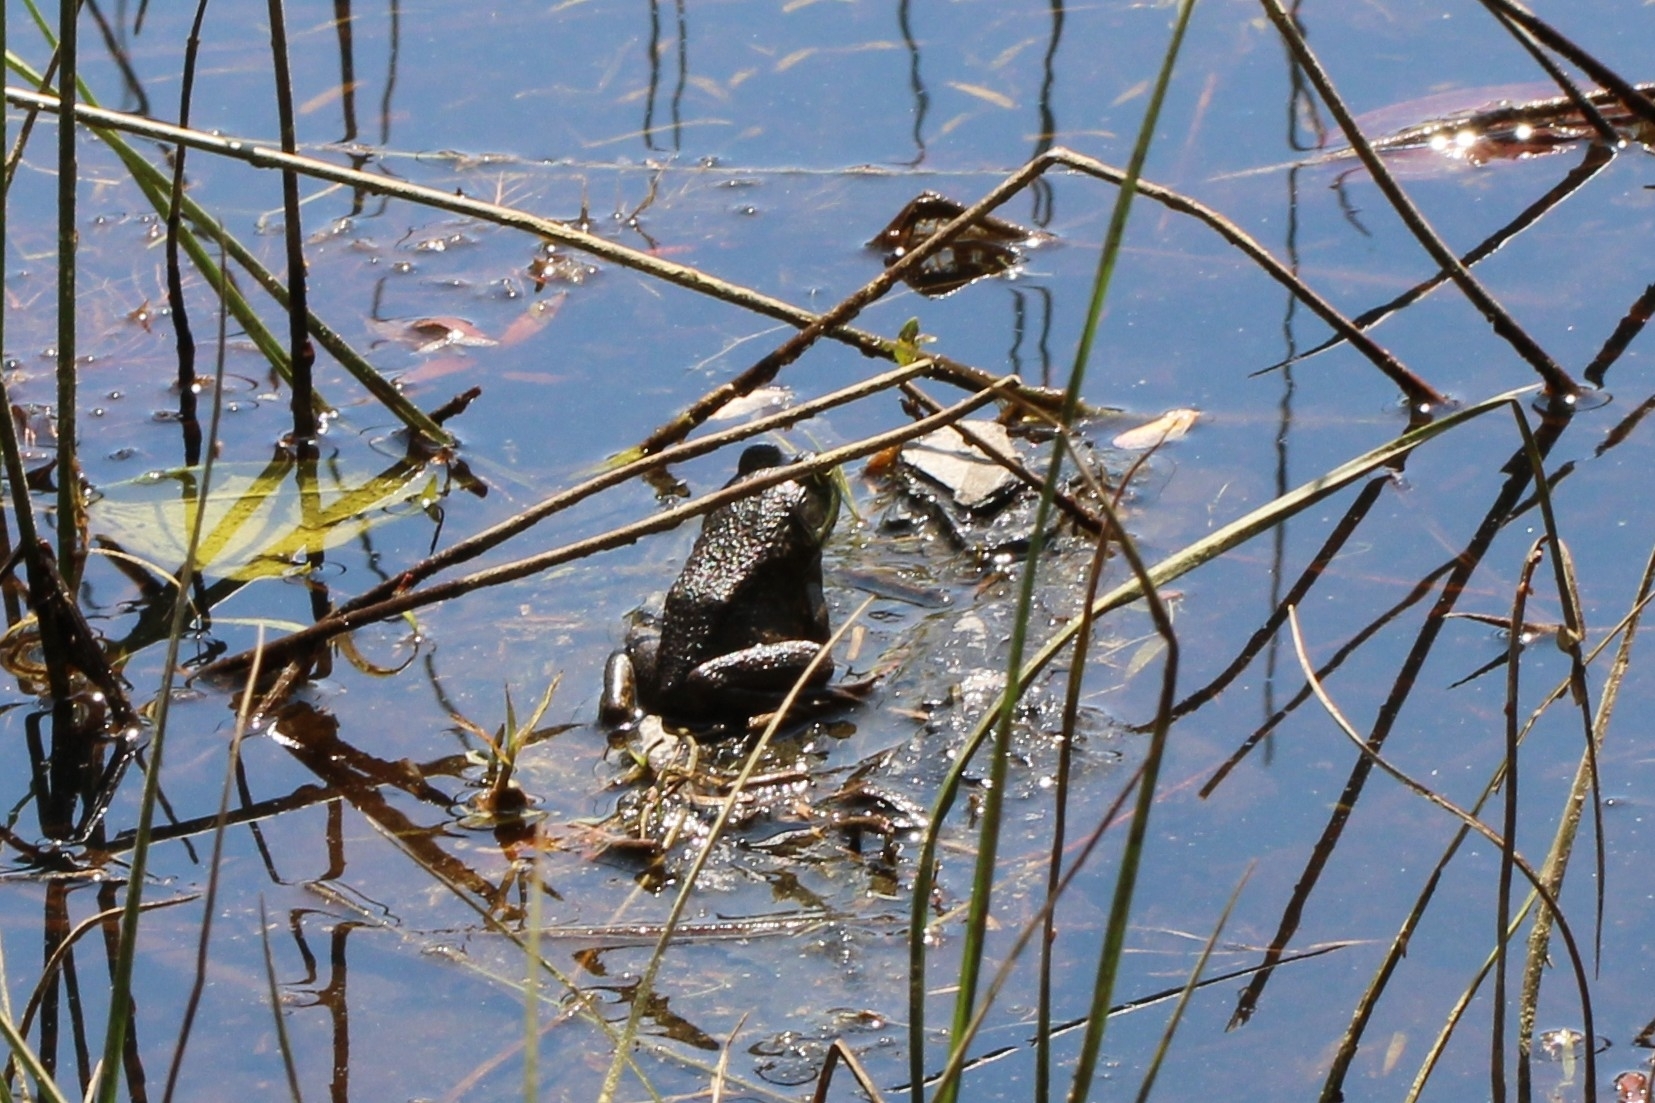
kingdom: Animalia
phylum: Chordata
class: Amphibia
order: Anura
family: Ranidae
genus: Lithobates
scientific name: Lithobates catesbeianus
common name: American bullfrog
